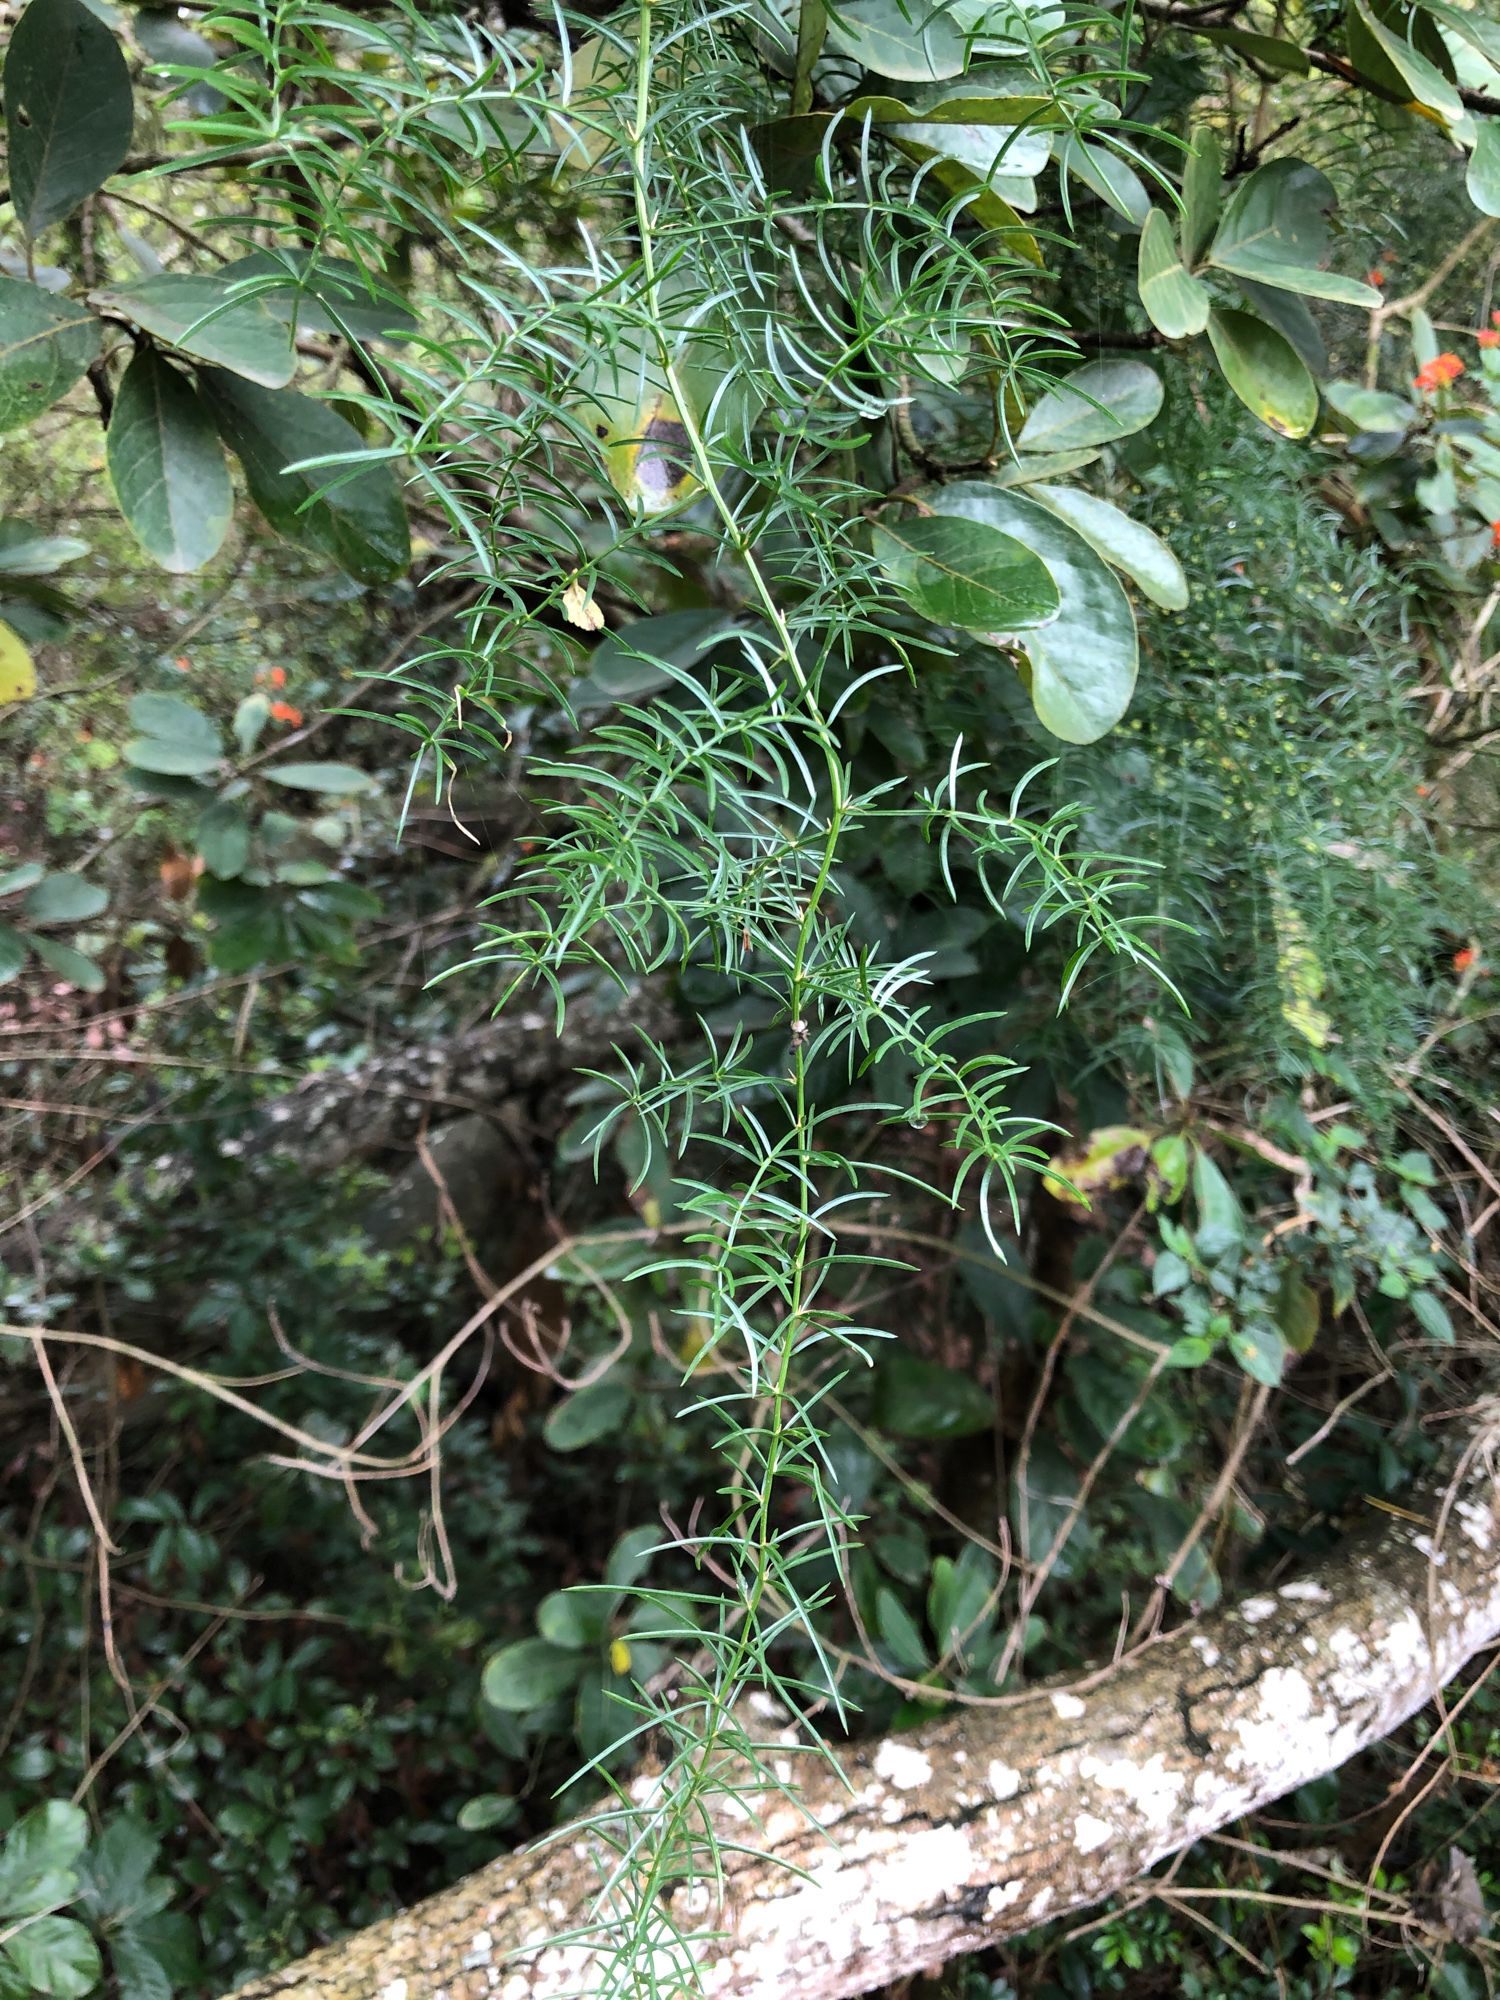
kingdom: Plantae
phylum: Tracheophyta
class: Liliopsida
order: Asparagales
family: Asparagaceae
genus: Asparagus
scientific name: Asparagus cochinchinensis
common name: Chinese asparagus
